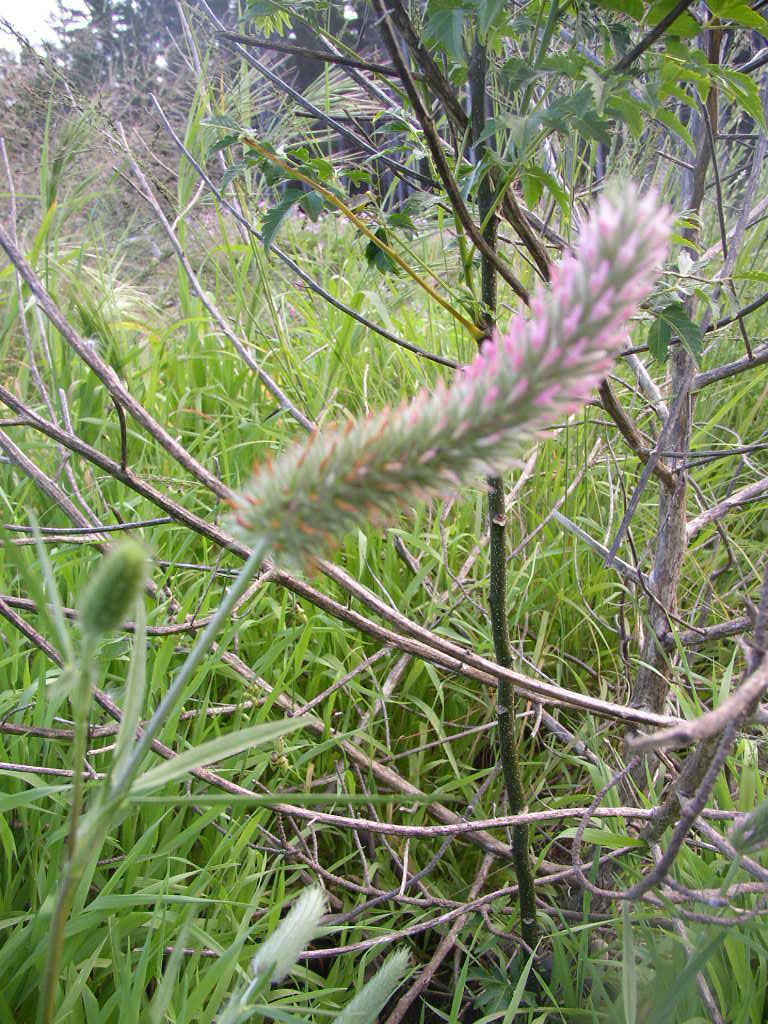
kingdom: Plantae
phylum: Tracheophyta
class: Magnoliopsida
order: Fabales
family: Fabaceae
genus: Trifolium
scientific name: Trifolium angustifolium
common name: Narrow clover
